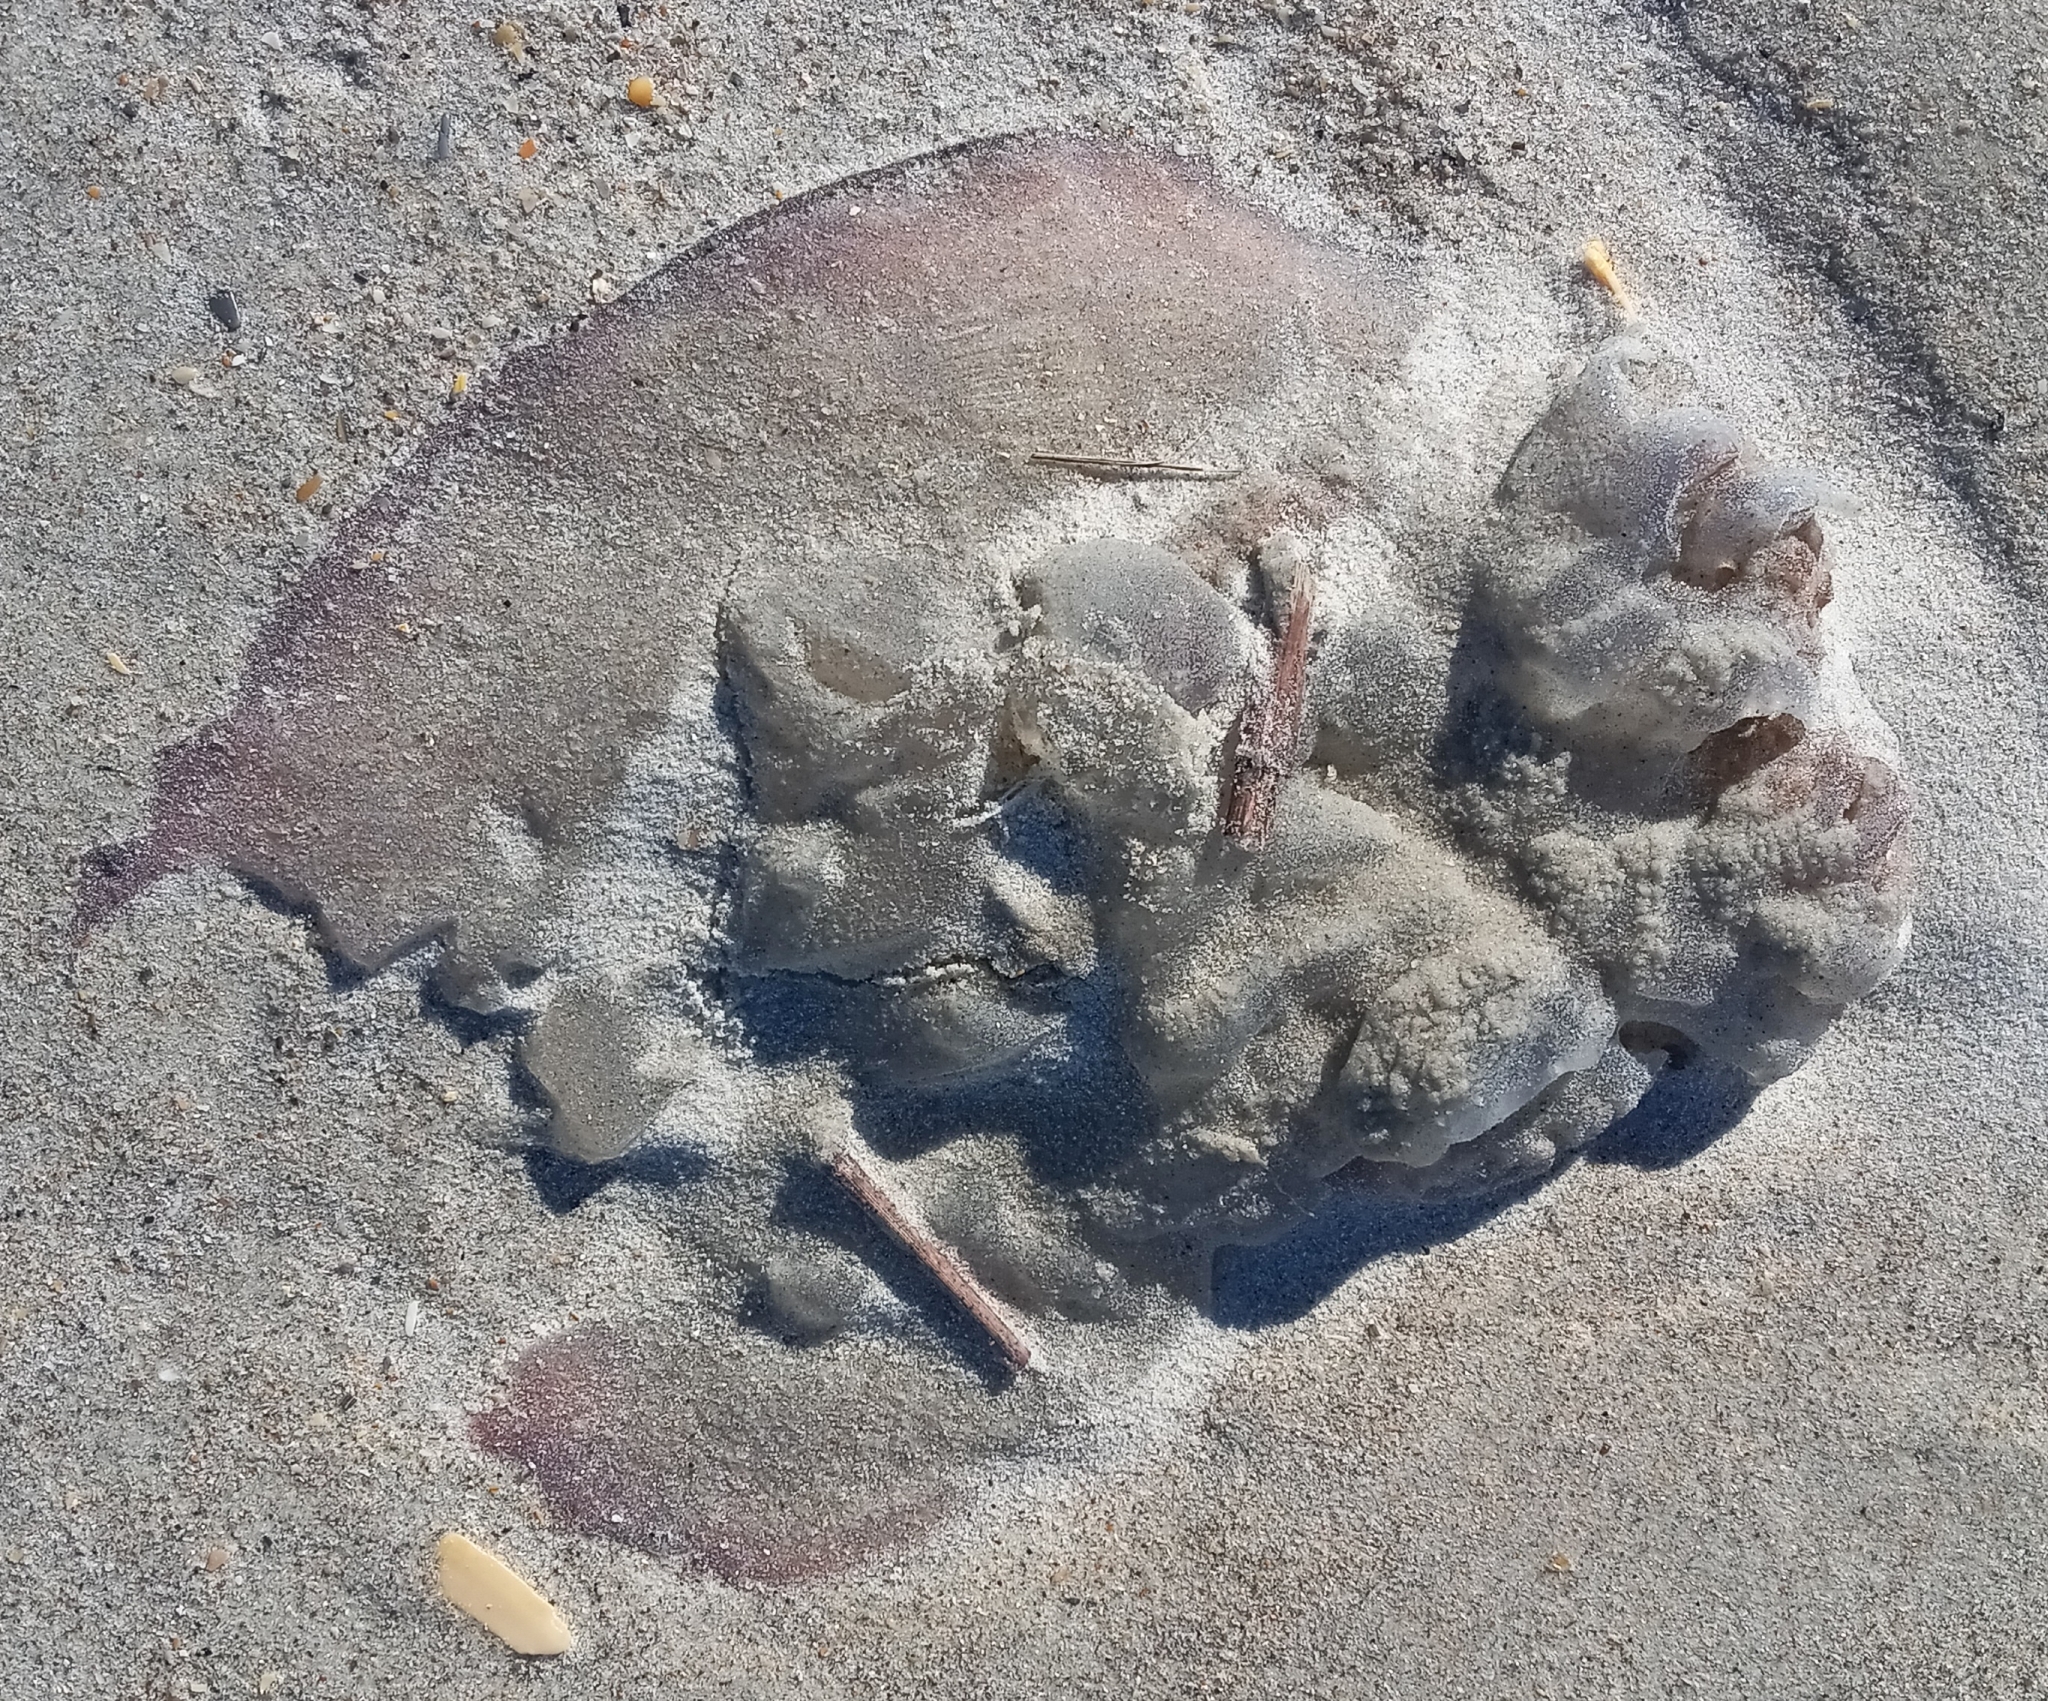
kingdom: Animalia
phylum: Cnidaria
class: Scyphozoa
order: Rhizostomeae
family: Stomolophidae
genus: Stomolophus
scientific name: Stomolophus meleagris
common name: Cabbagehead
